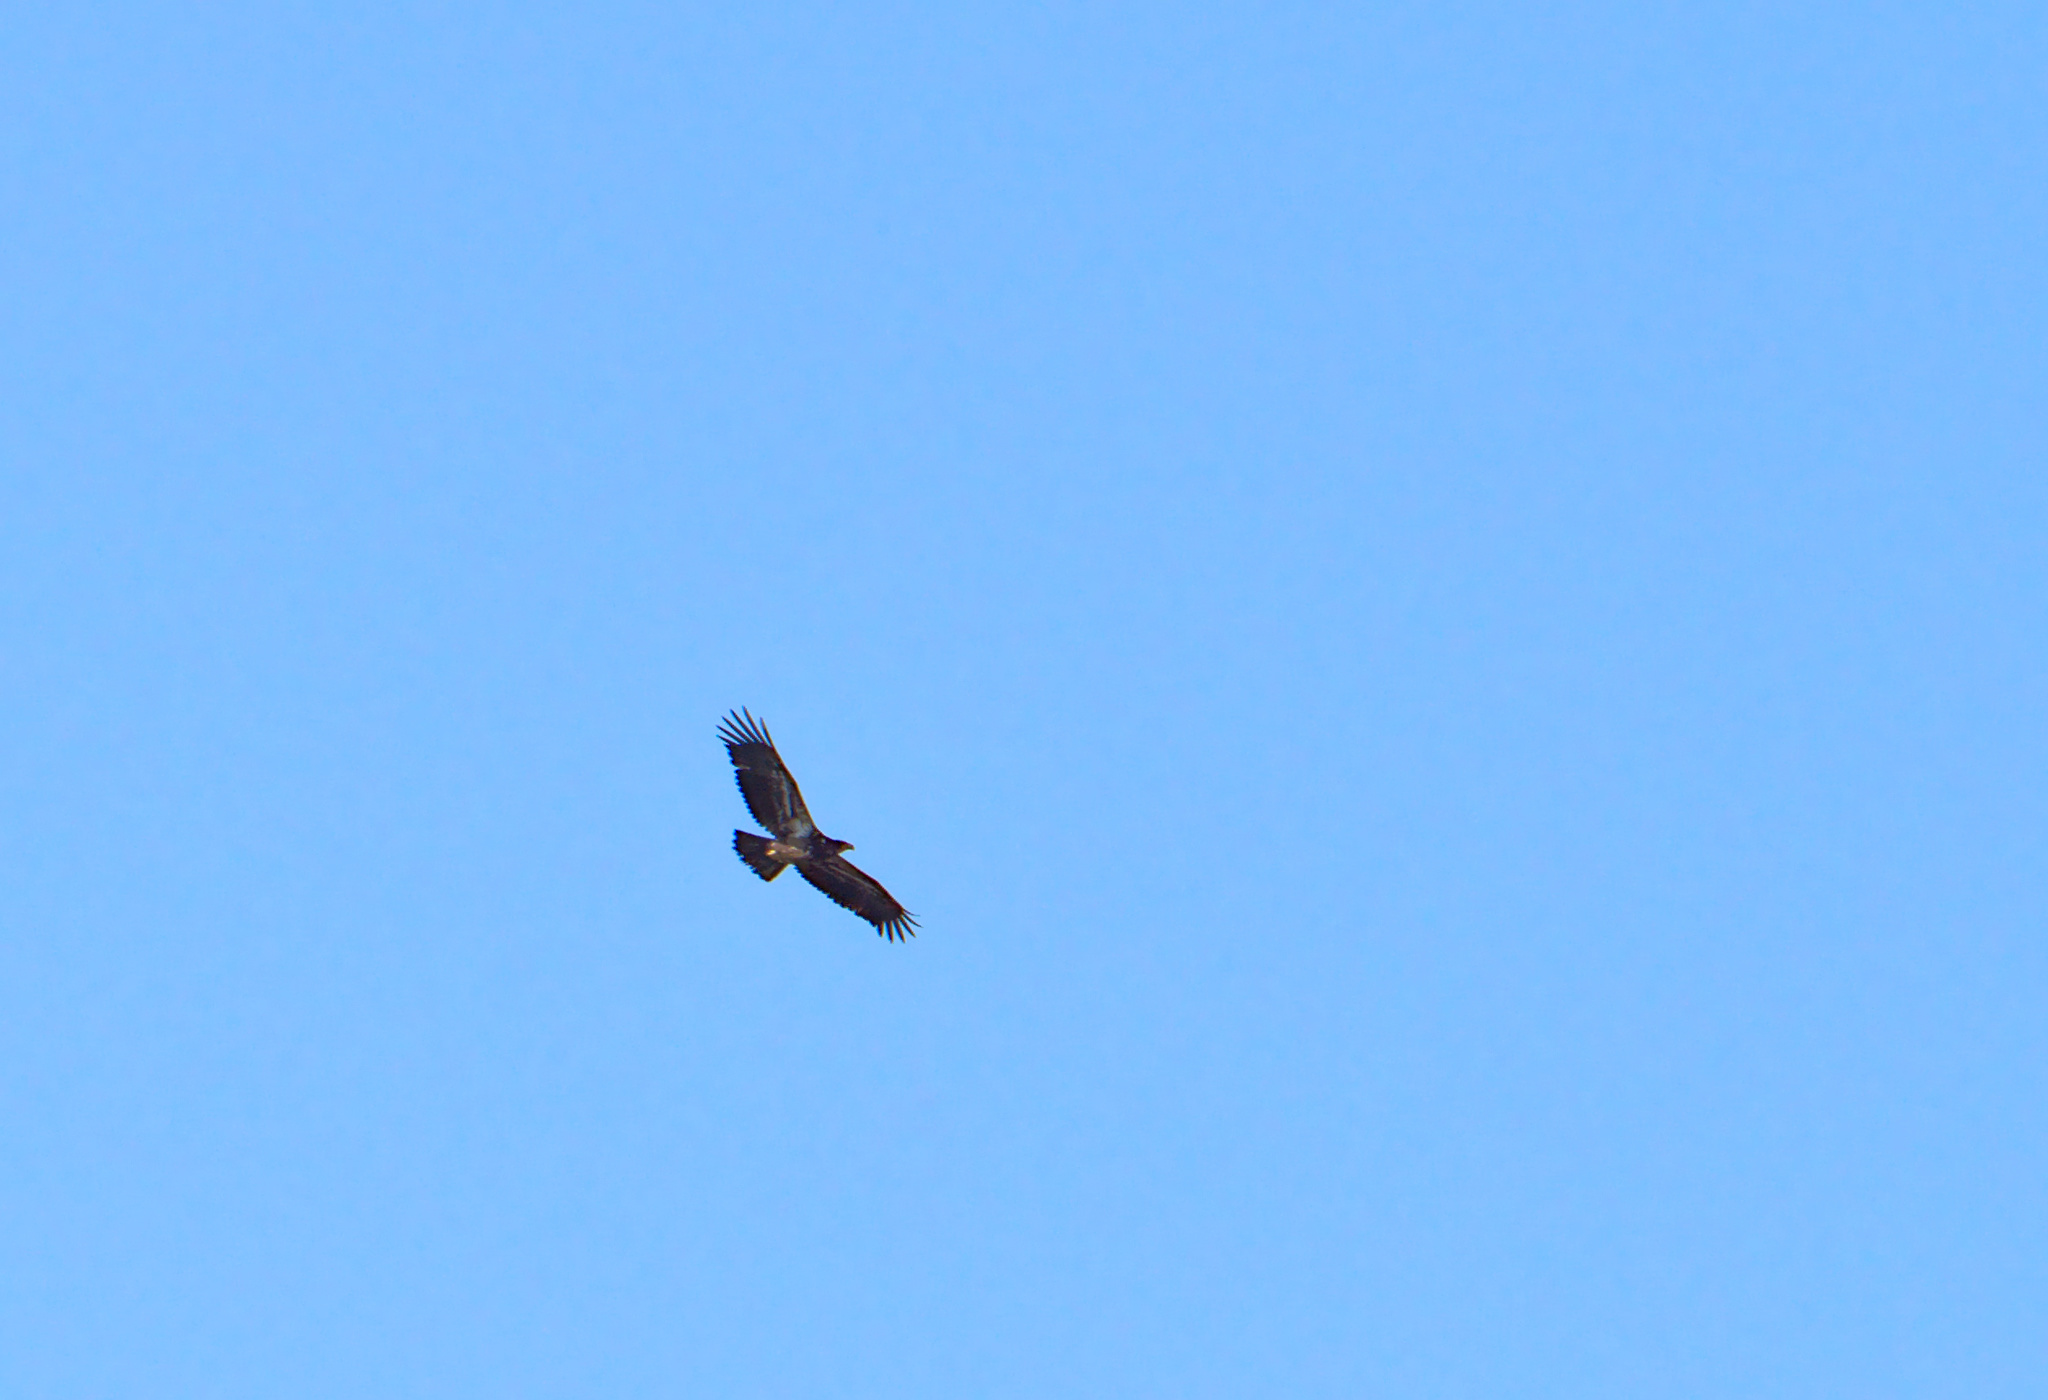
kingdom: Animalia
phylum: Chordata
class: Aves
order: Accipitriformes
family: Accipitridae
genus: Haliaeetus
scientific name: Haliaeetus leucocephalus
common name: Bald eagle
